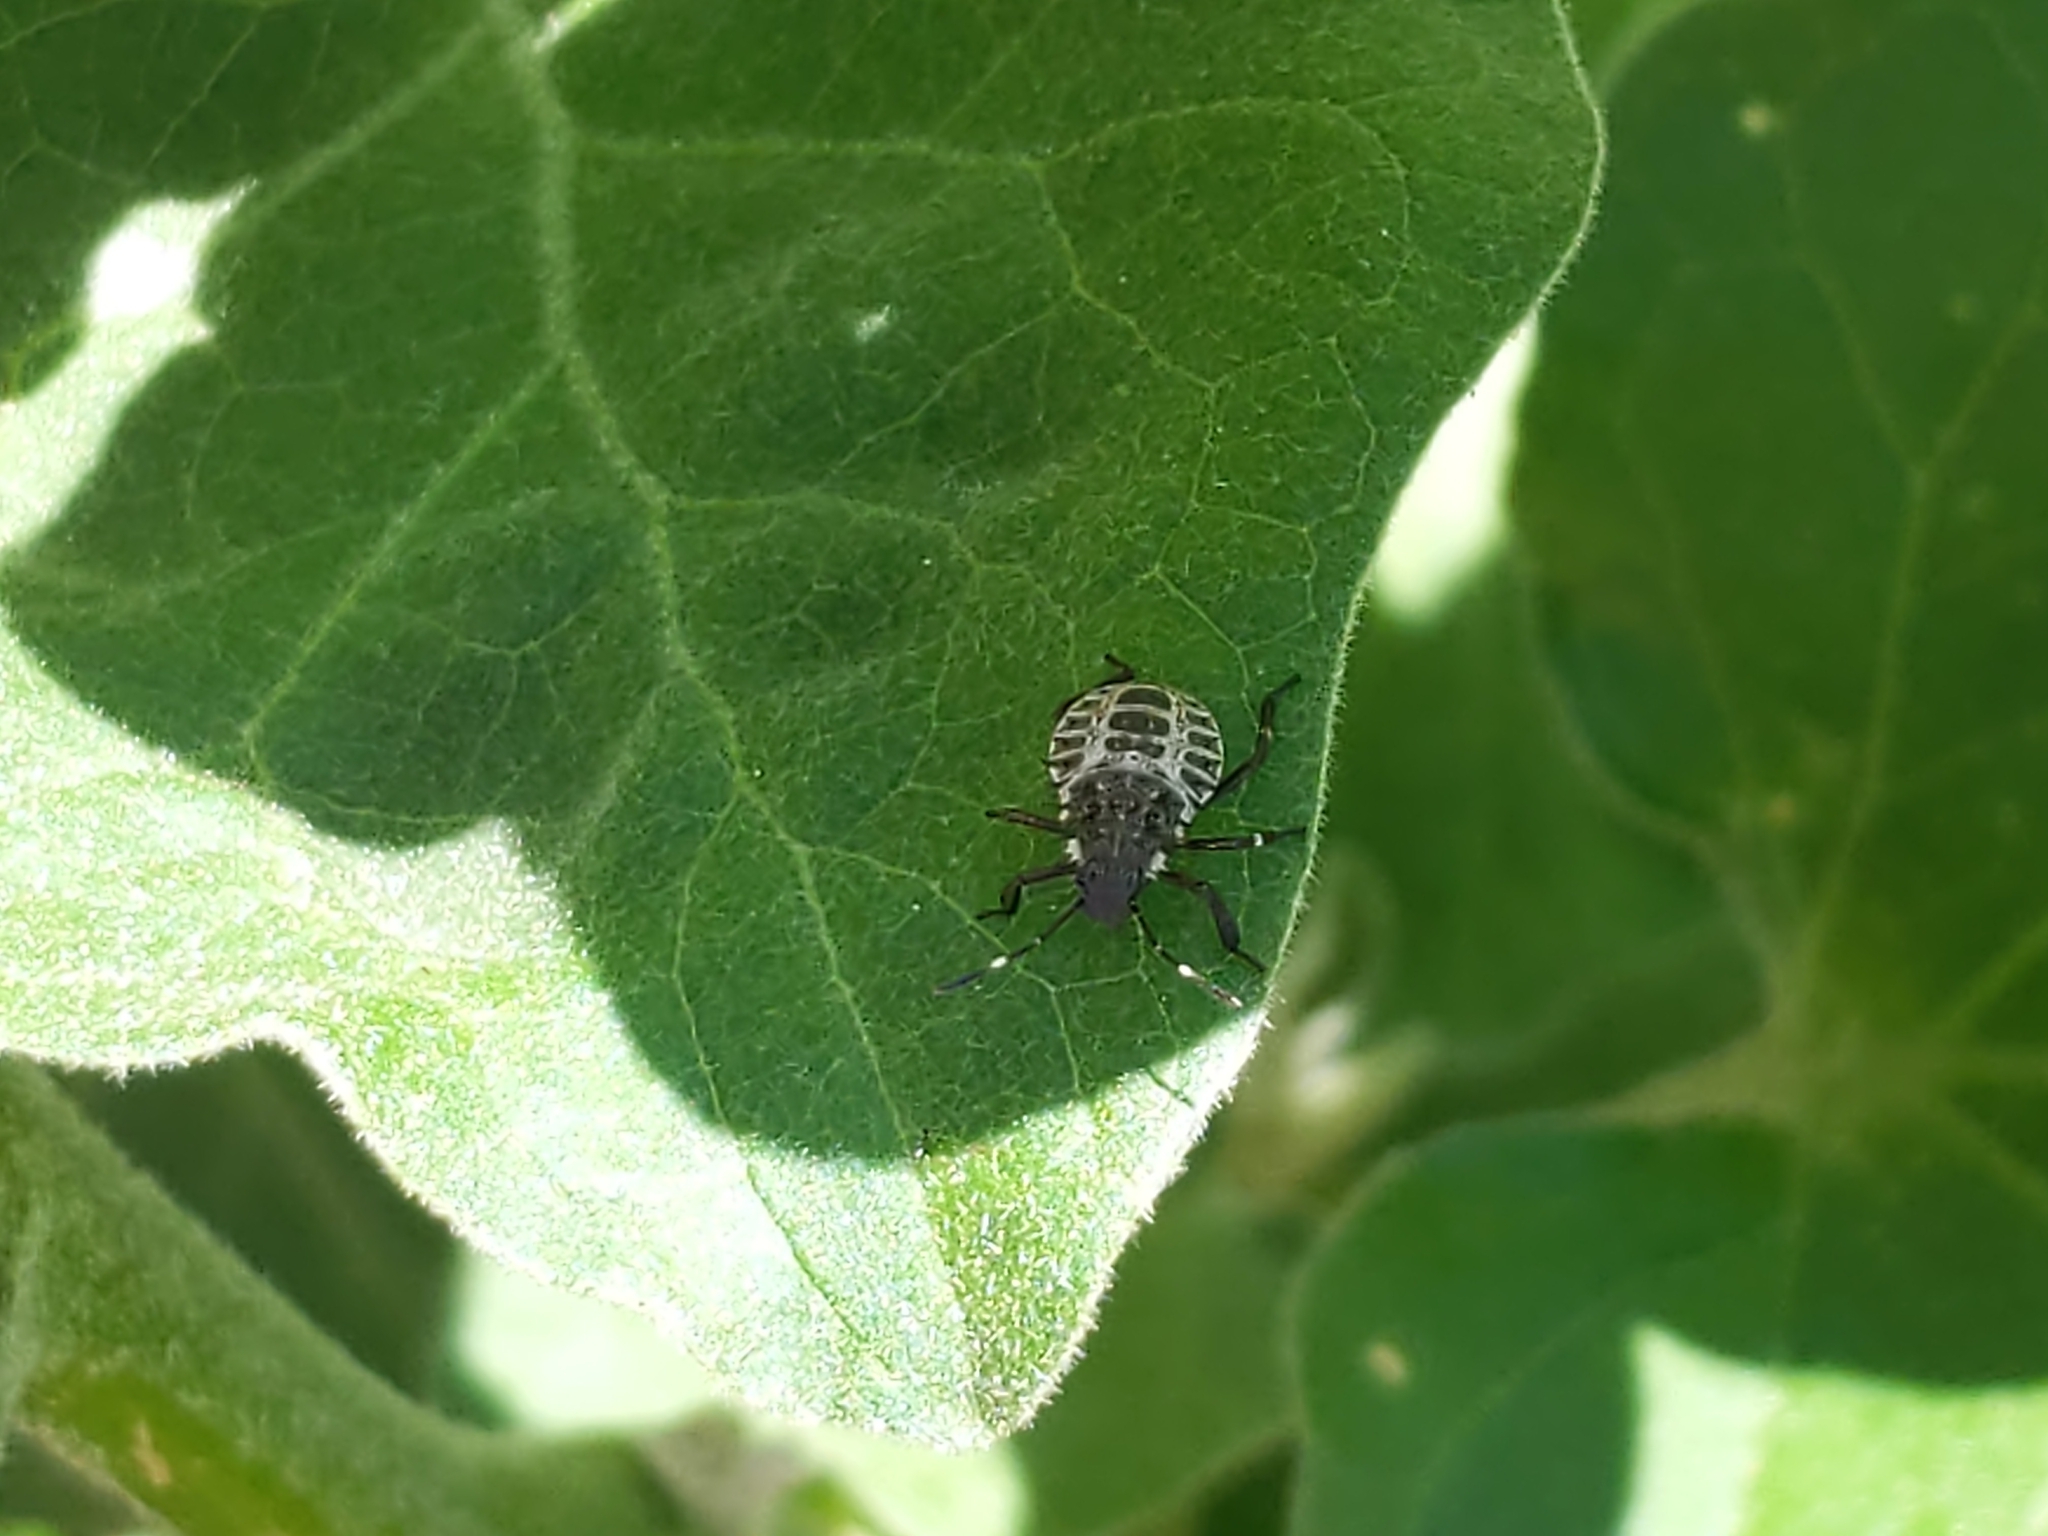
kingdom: Animalia
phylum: Arthropoda
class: Insecta
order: Hemiptera
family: Pentatomidae
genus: Halyomorpha
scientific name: Halyomorpha halys
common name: Brown marmorated stink bug
